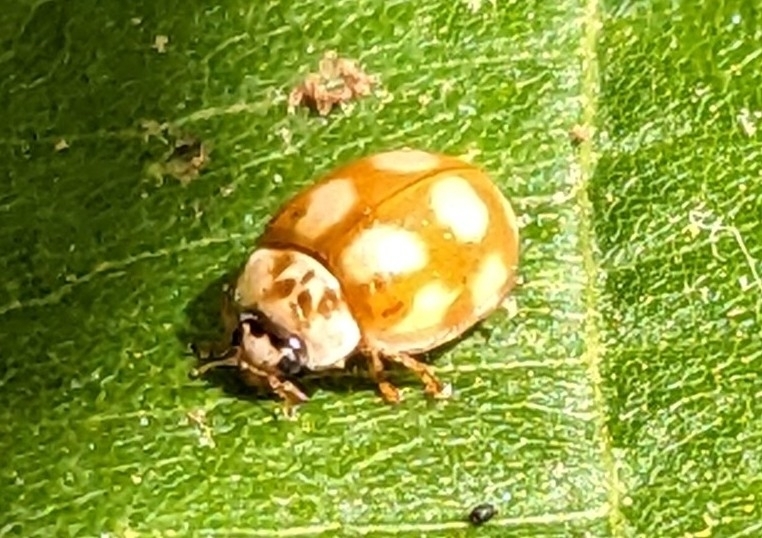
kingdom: Animalia
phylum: Arthropoda
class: Insecta
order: Coleoptera
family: Coccinellidae
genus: Calvia
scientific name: Calvia decemguttata
